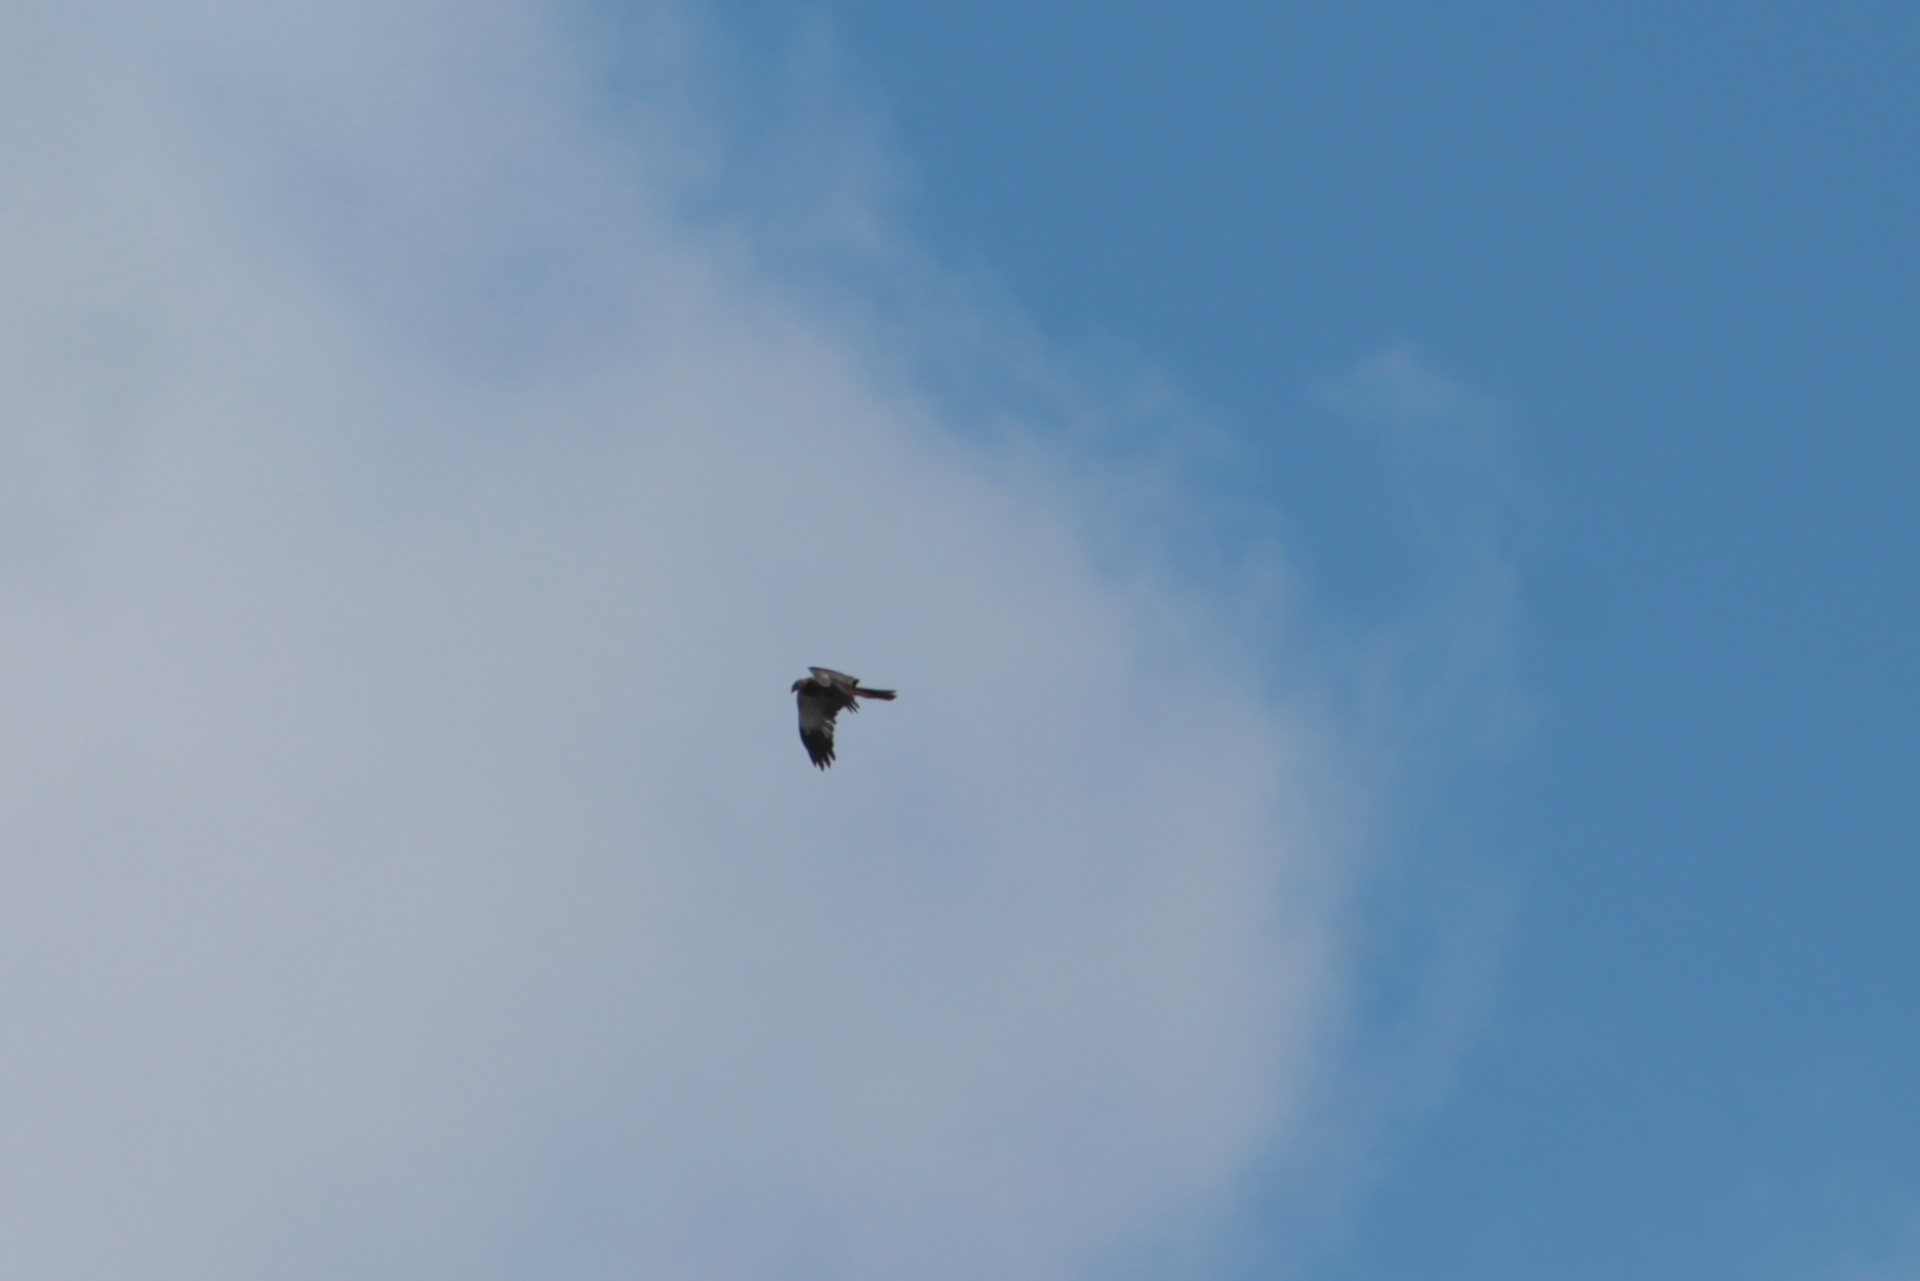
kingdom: Animalia
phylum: Chordata
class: Aves
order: Accipitriformes
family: Accipitridae
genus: Circus
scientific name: Circus aeruginosus
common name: Western marsh harrier
